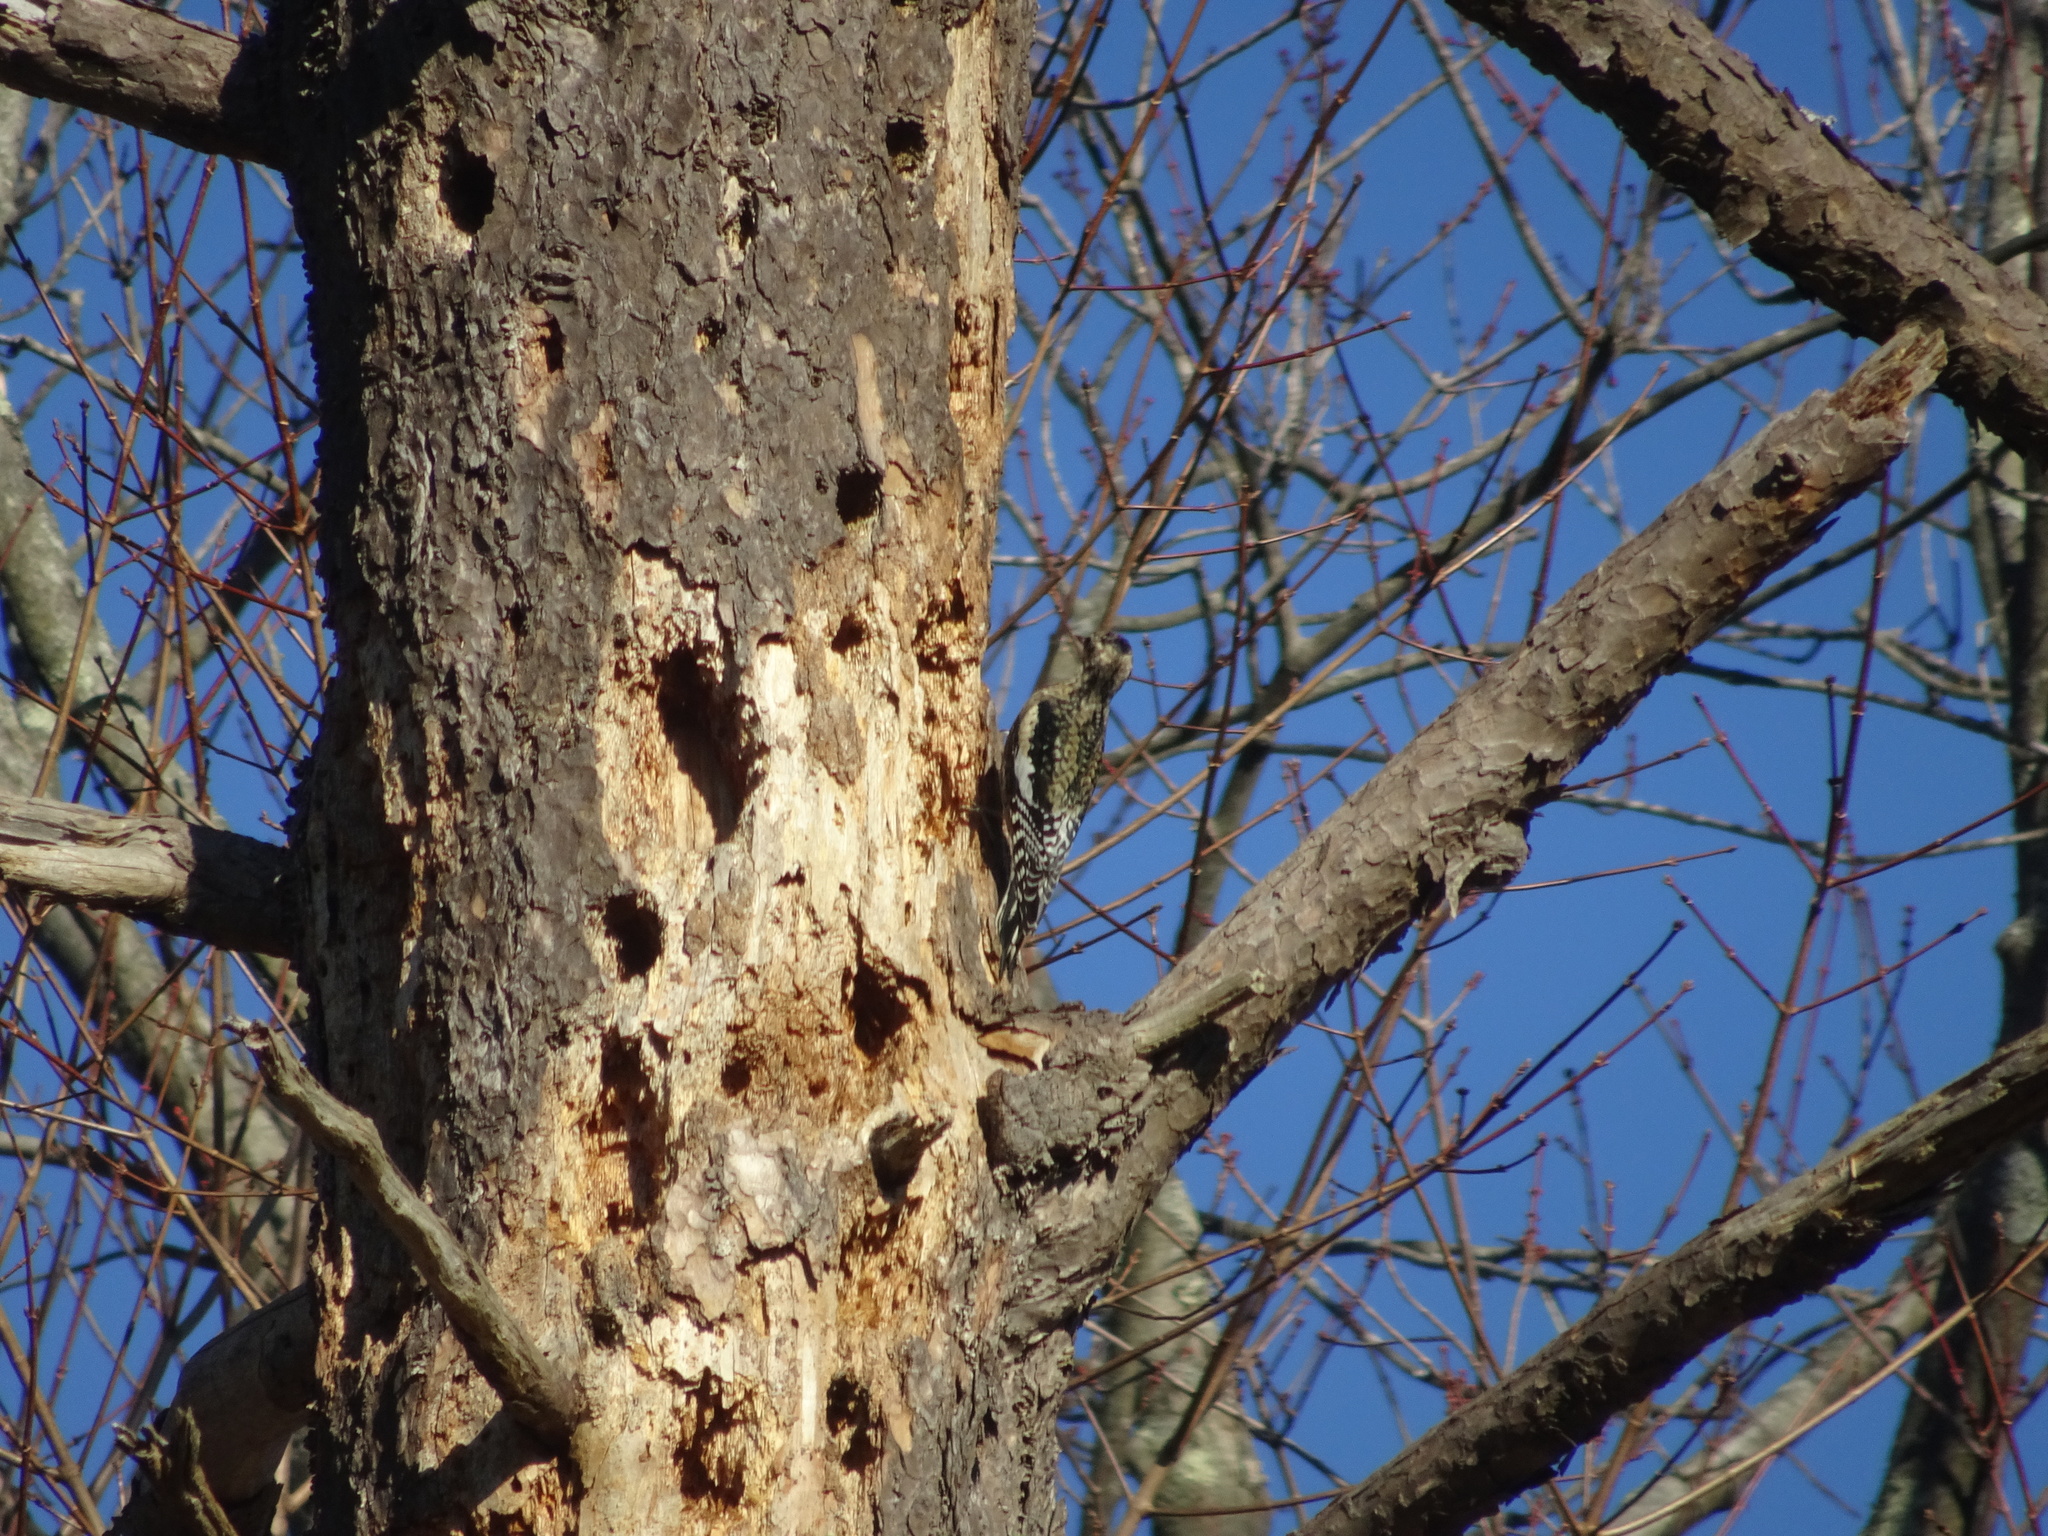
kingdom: Animalia
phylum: Chordata
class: Aves
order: Piciformes
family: Picidae
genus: Sphyrapicus
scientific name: Sphyrapicus varius
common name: Yellow-bellied sapsucker
